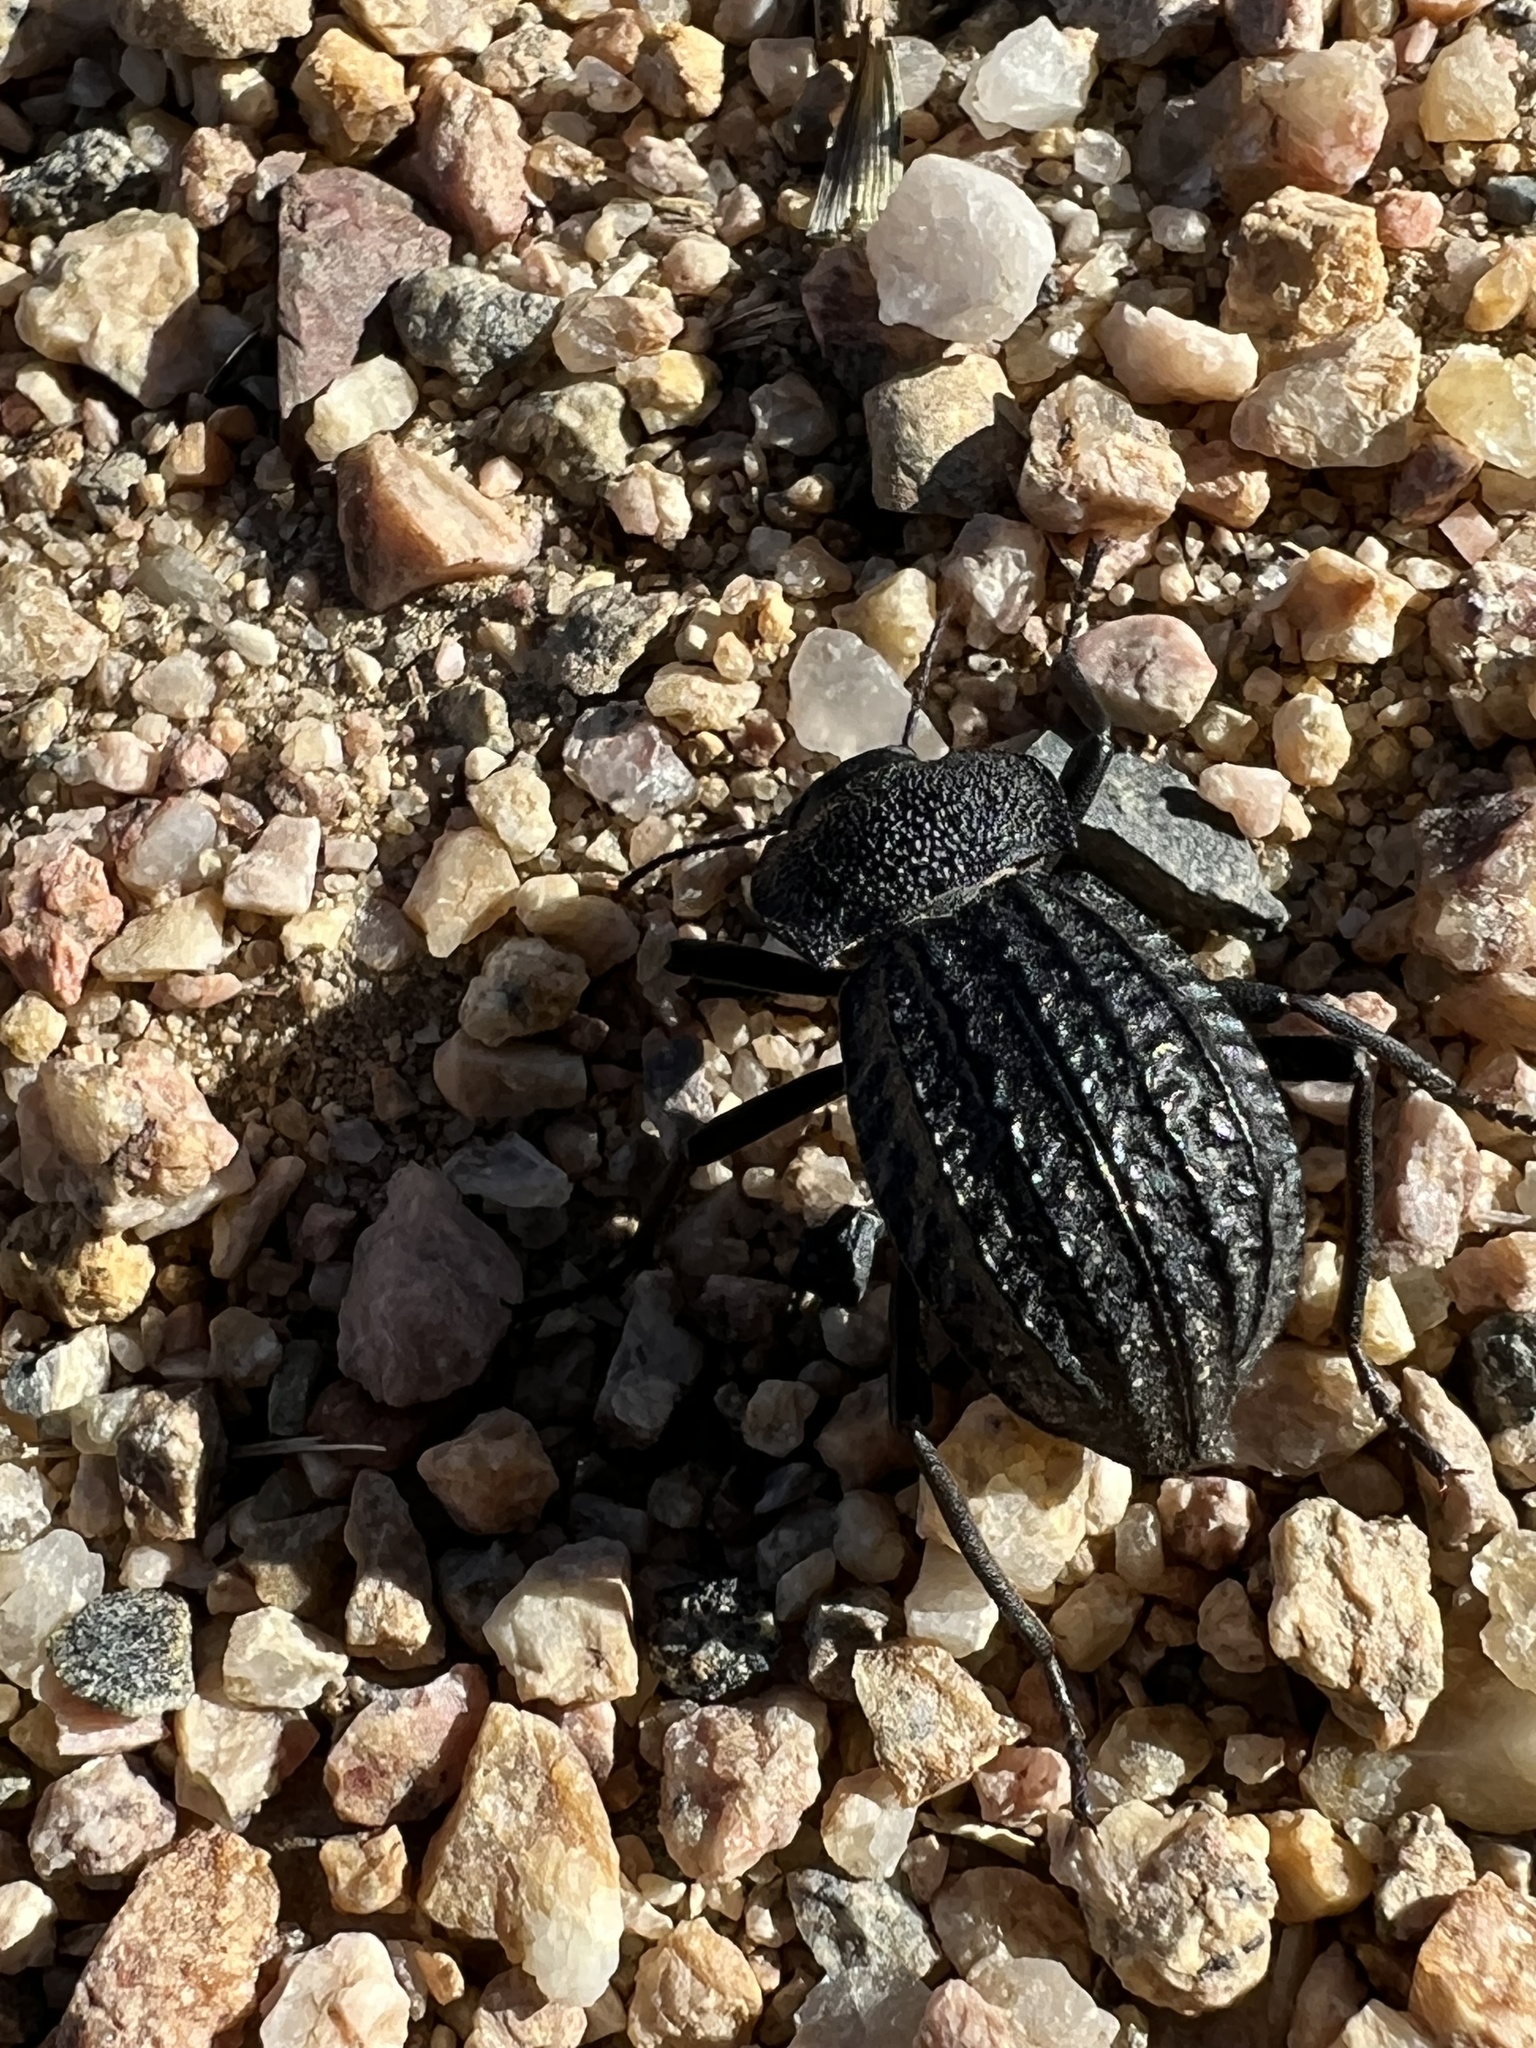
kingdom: Animalia
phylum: Arthropoda
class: Insecta
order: Coleoptera
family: Tenebrionidae
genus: Philolithus
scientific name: Philolithus sordidus
